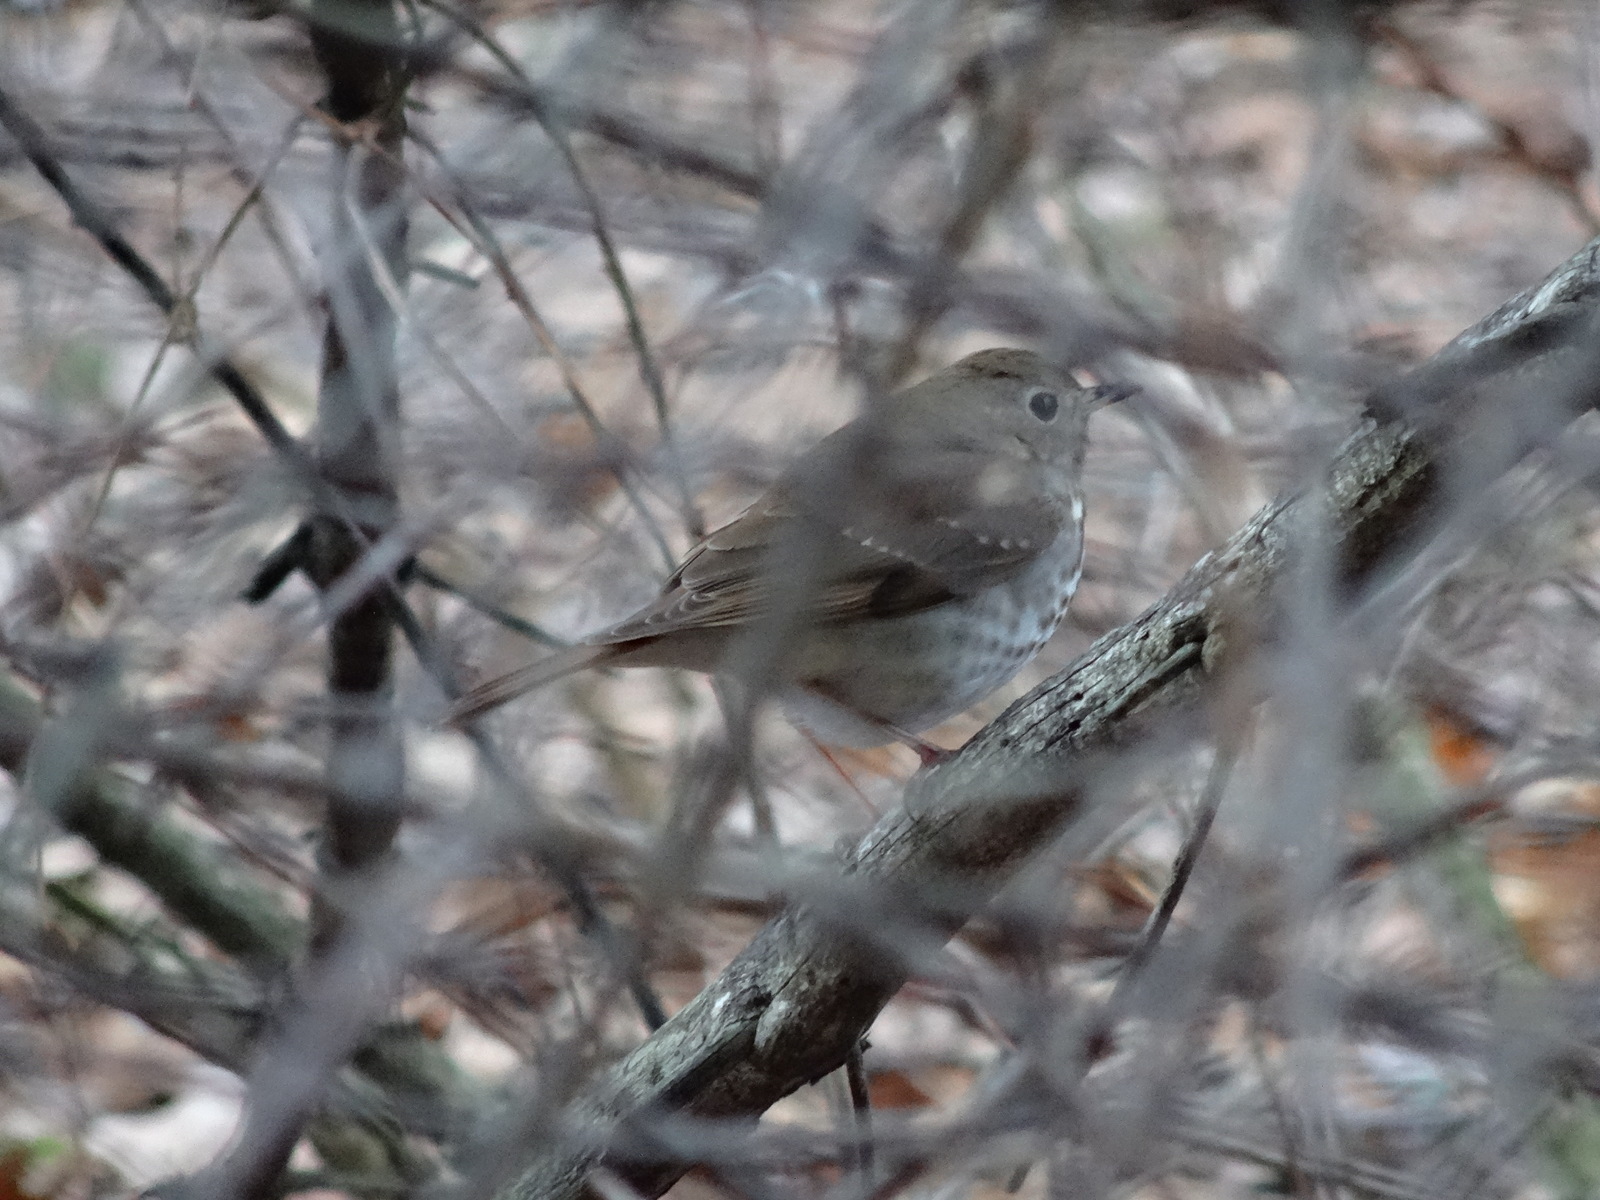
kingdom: Animalia
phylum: Chordata
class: Aves
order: Passeriformes
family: Turdidae
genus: Catharus
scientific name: Catharus guttatus
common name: Hermit thrush
